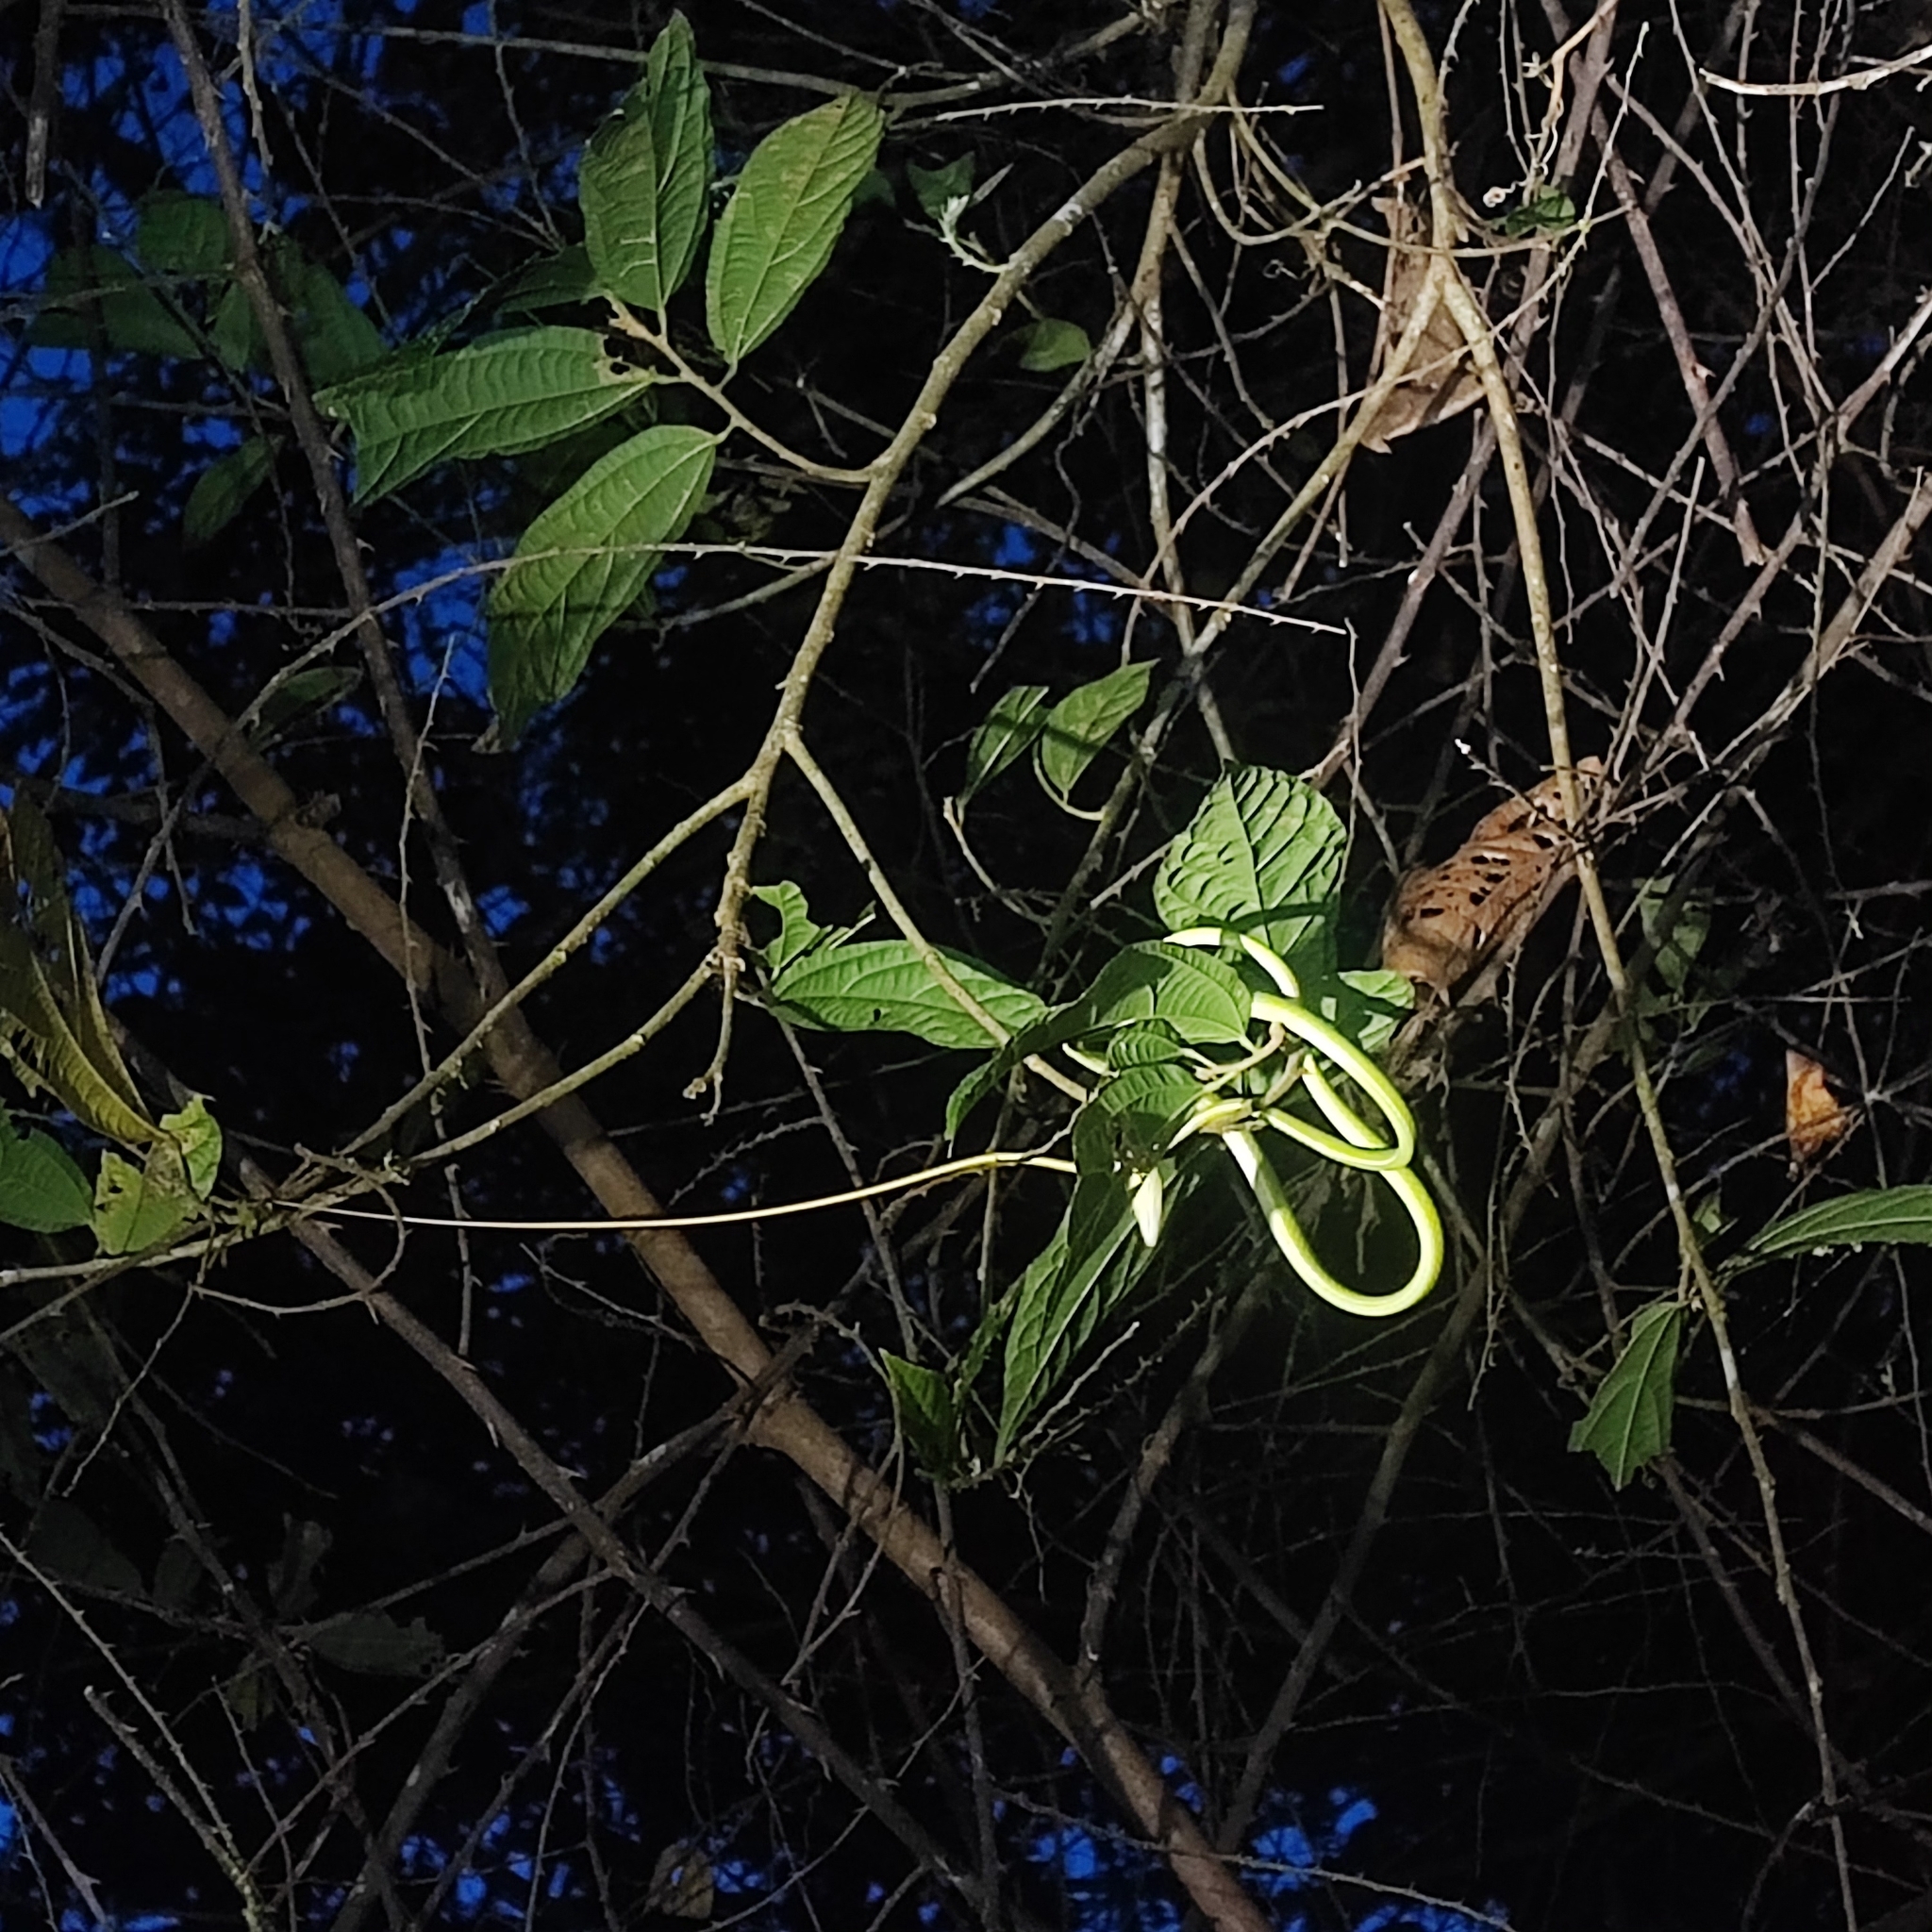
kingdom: Animalia
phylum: Chordata
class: Squamata
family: Colubridae
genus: Ahaetulla
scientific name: Ahaetulla prasina
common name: Oriental whip snake
